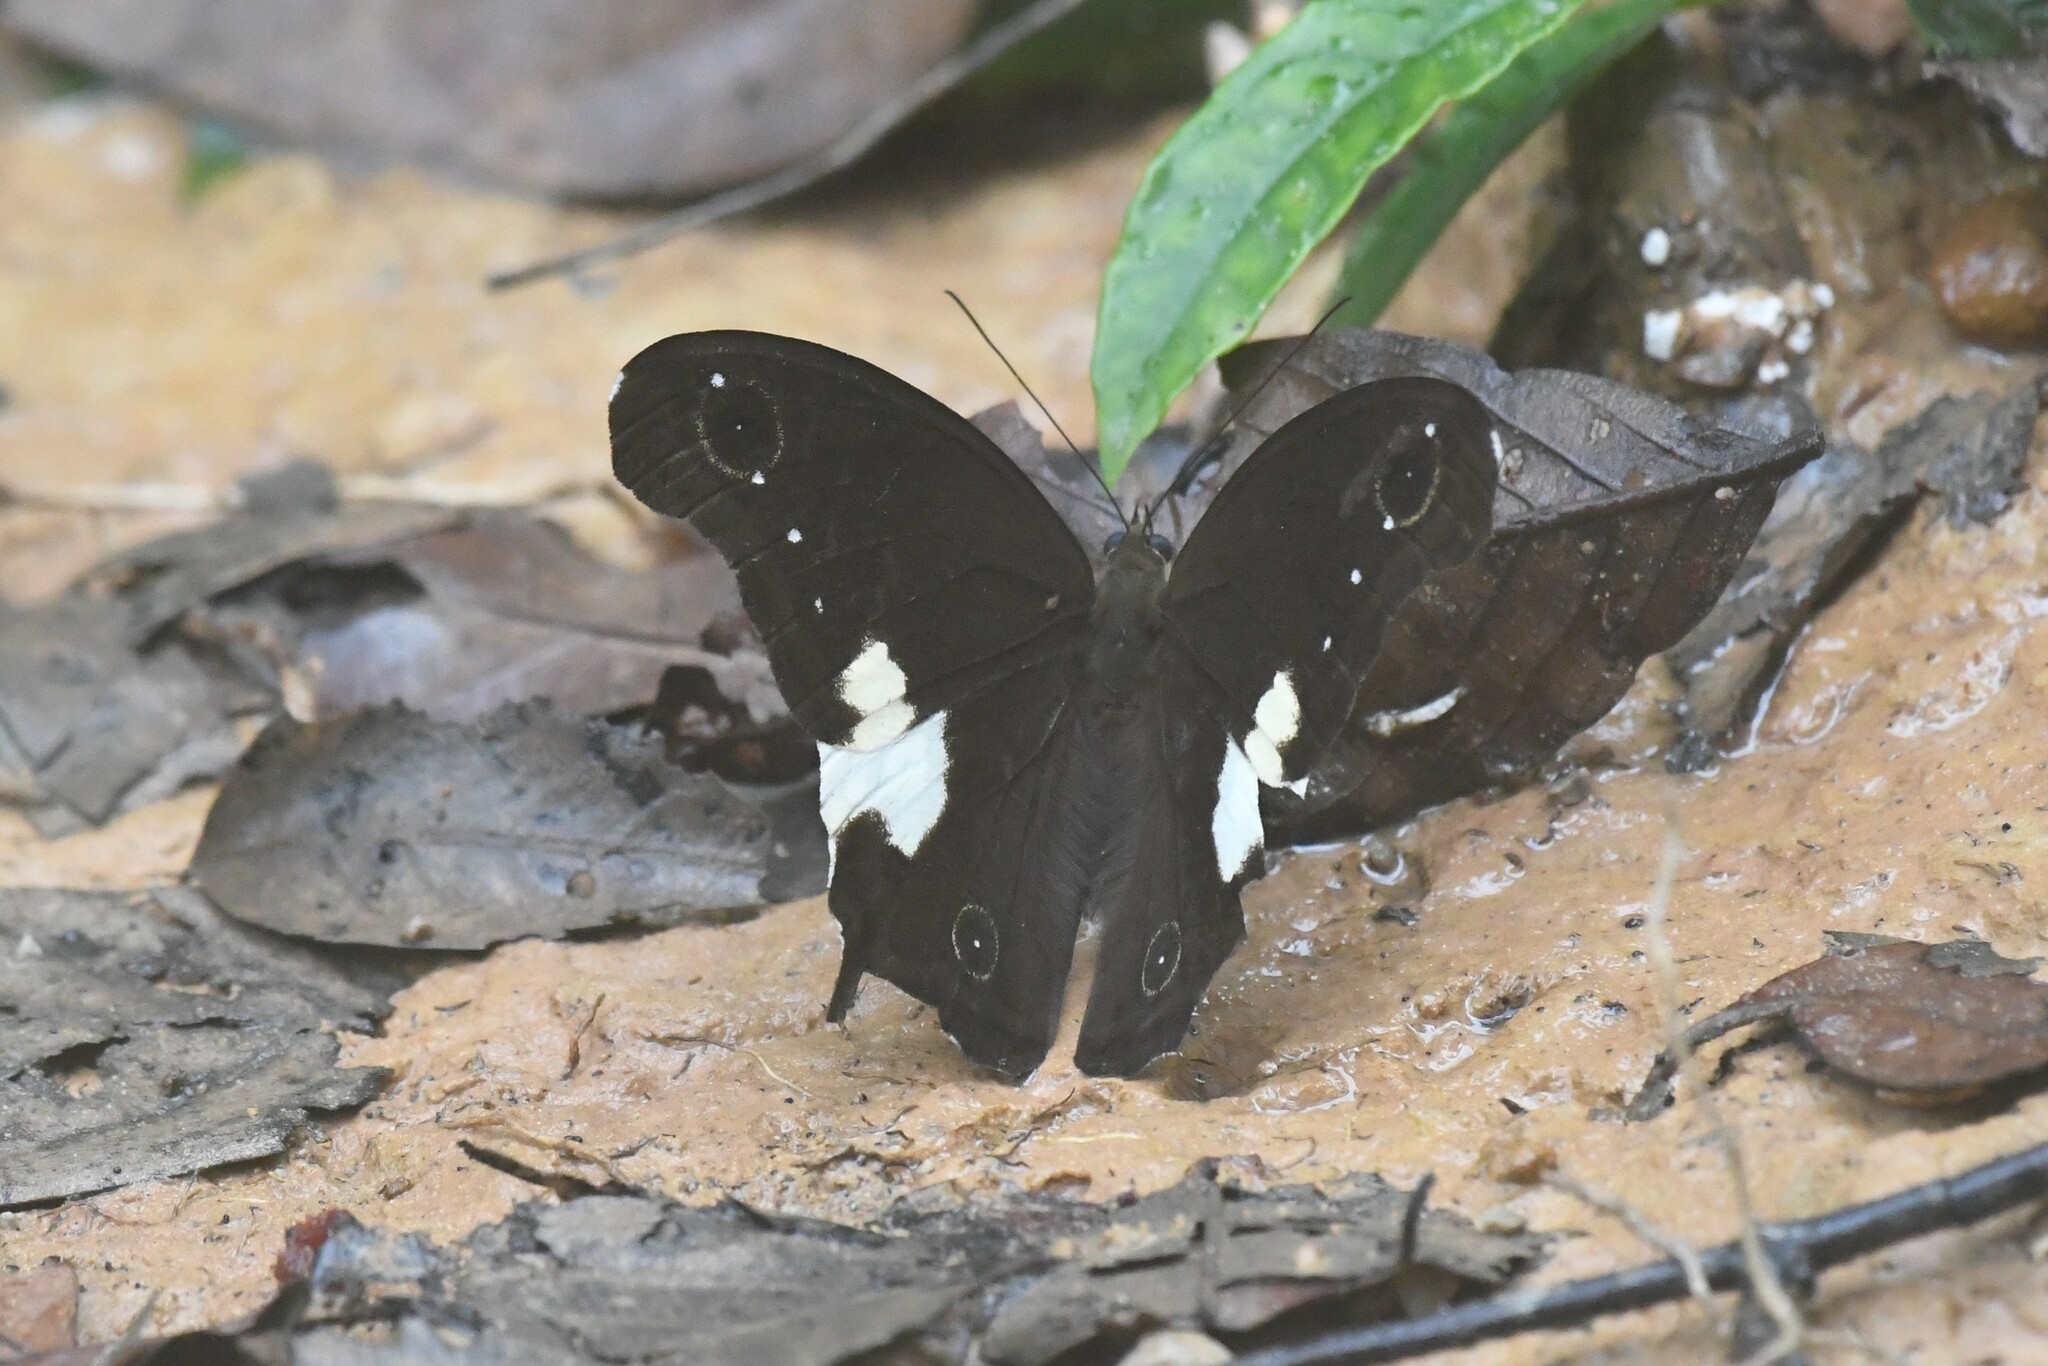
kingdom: Animalia
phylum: Arthropoda
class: Insecta
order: Lepidoptera
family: Nymphalidae
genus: Neorina
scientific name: Neorina lowii
